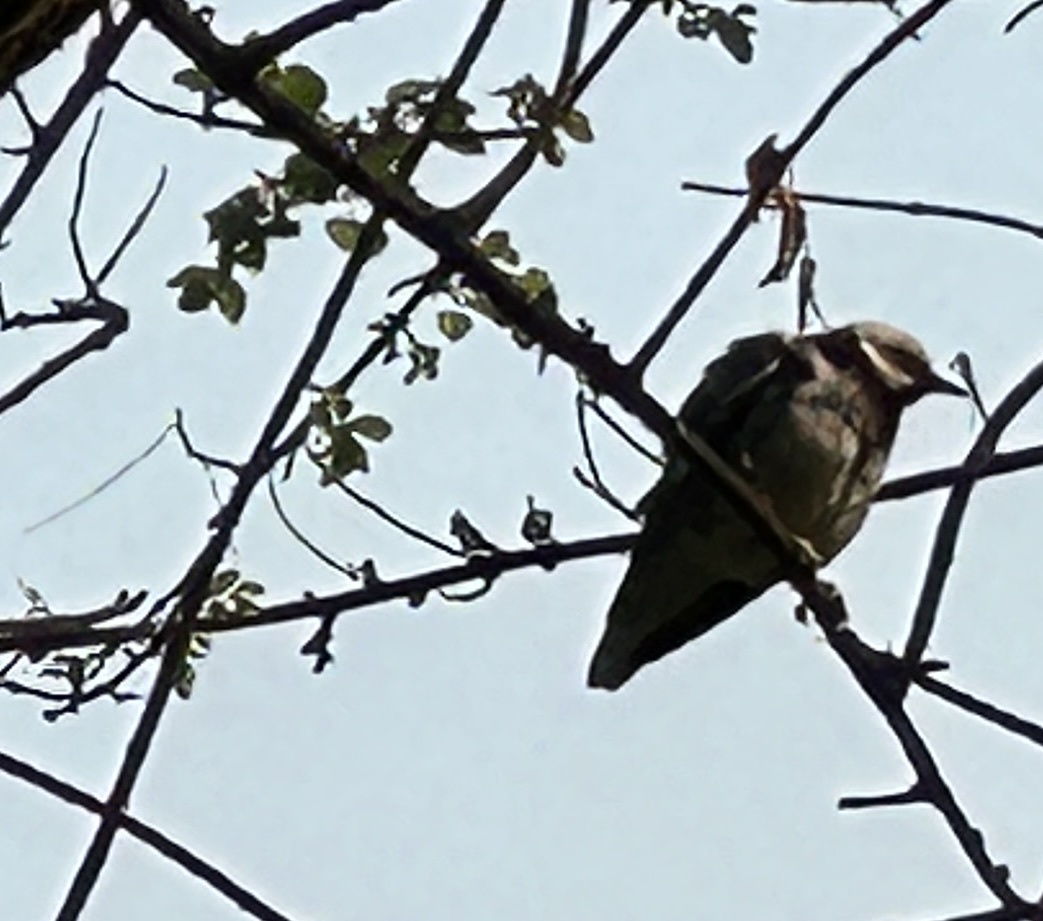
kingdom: Animalia
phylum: Chordata
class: Aves
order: Passeriformes
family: Sturnidae
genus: Gracupica
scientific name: Gracupica nigricollis
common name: Black-collared starling
